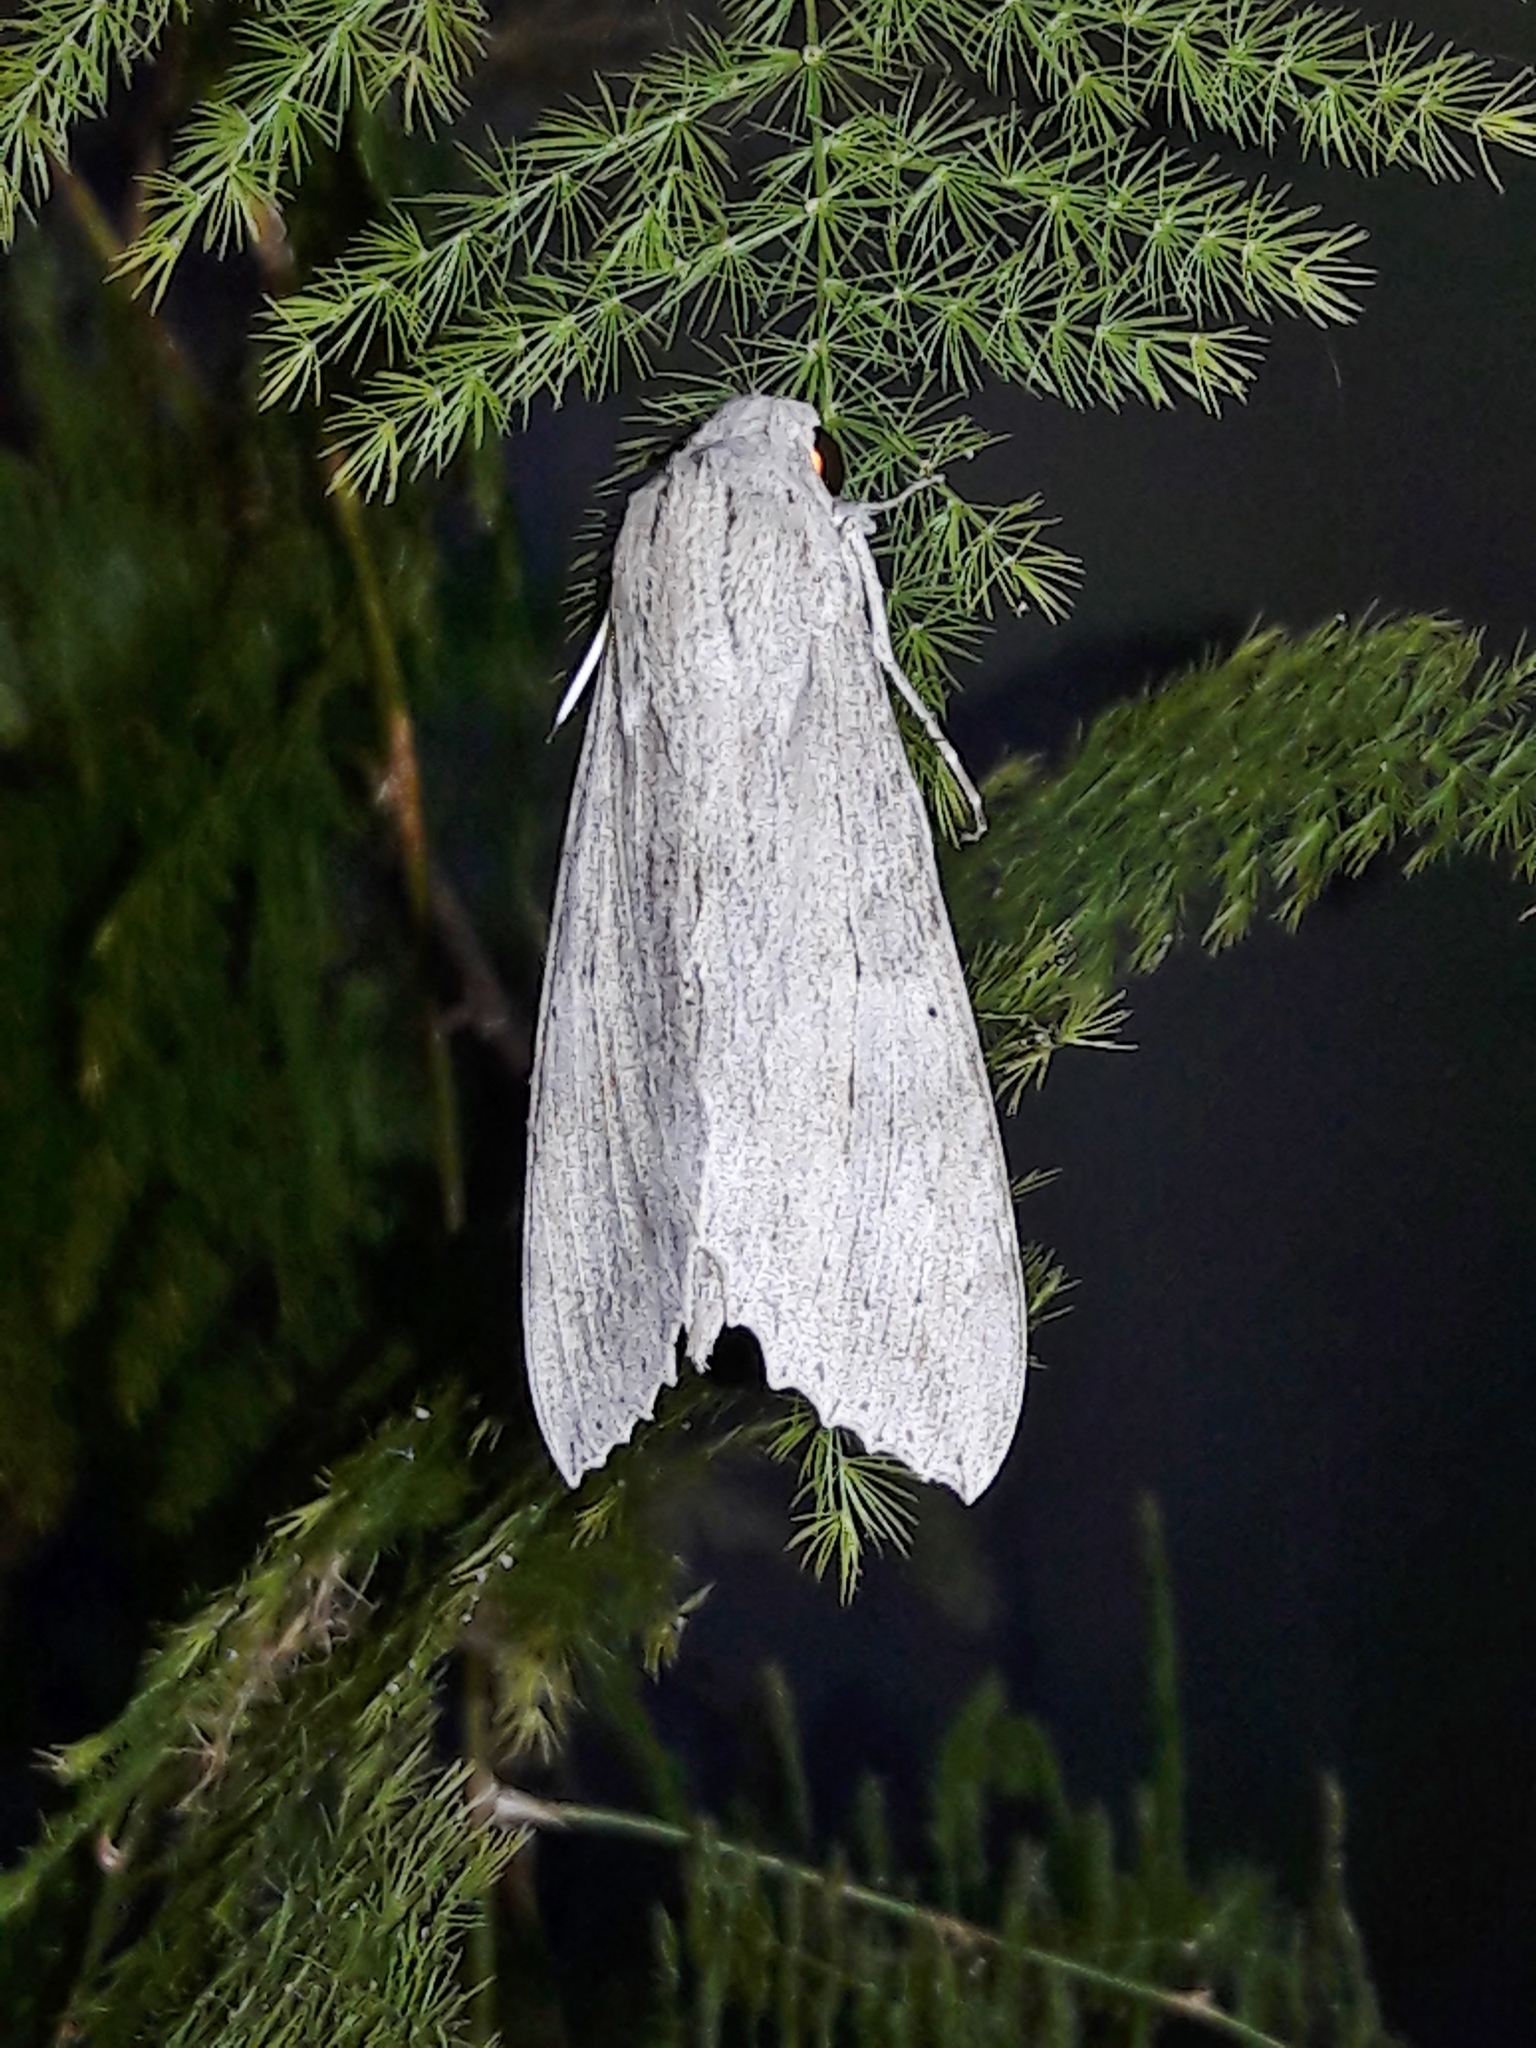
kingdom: Animalia
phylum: Arthropoda
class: Insecta
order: Lepidoptera
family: Sphingidae
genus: Erinnyis
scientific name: Erinnyis ello
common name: Ello sphinx
